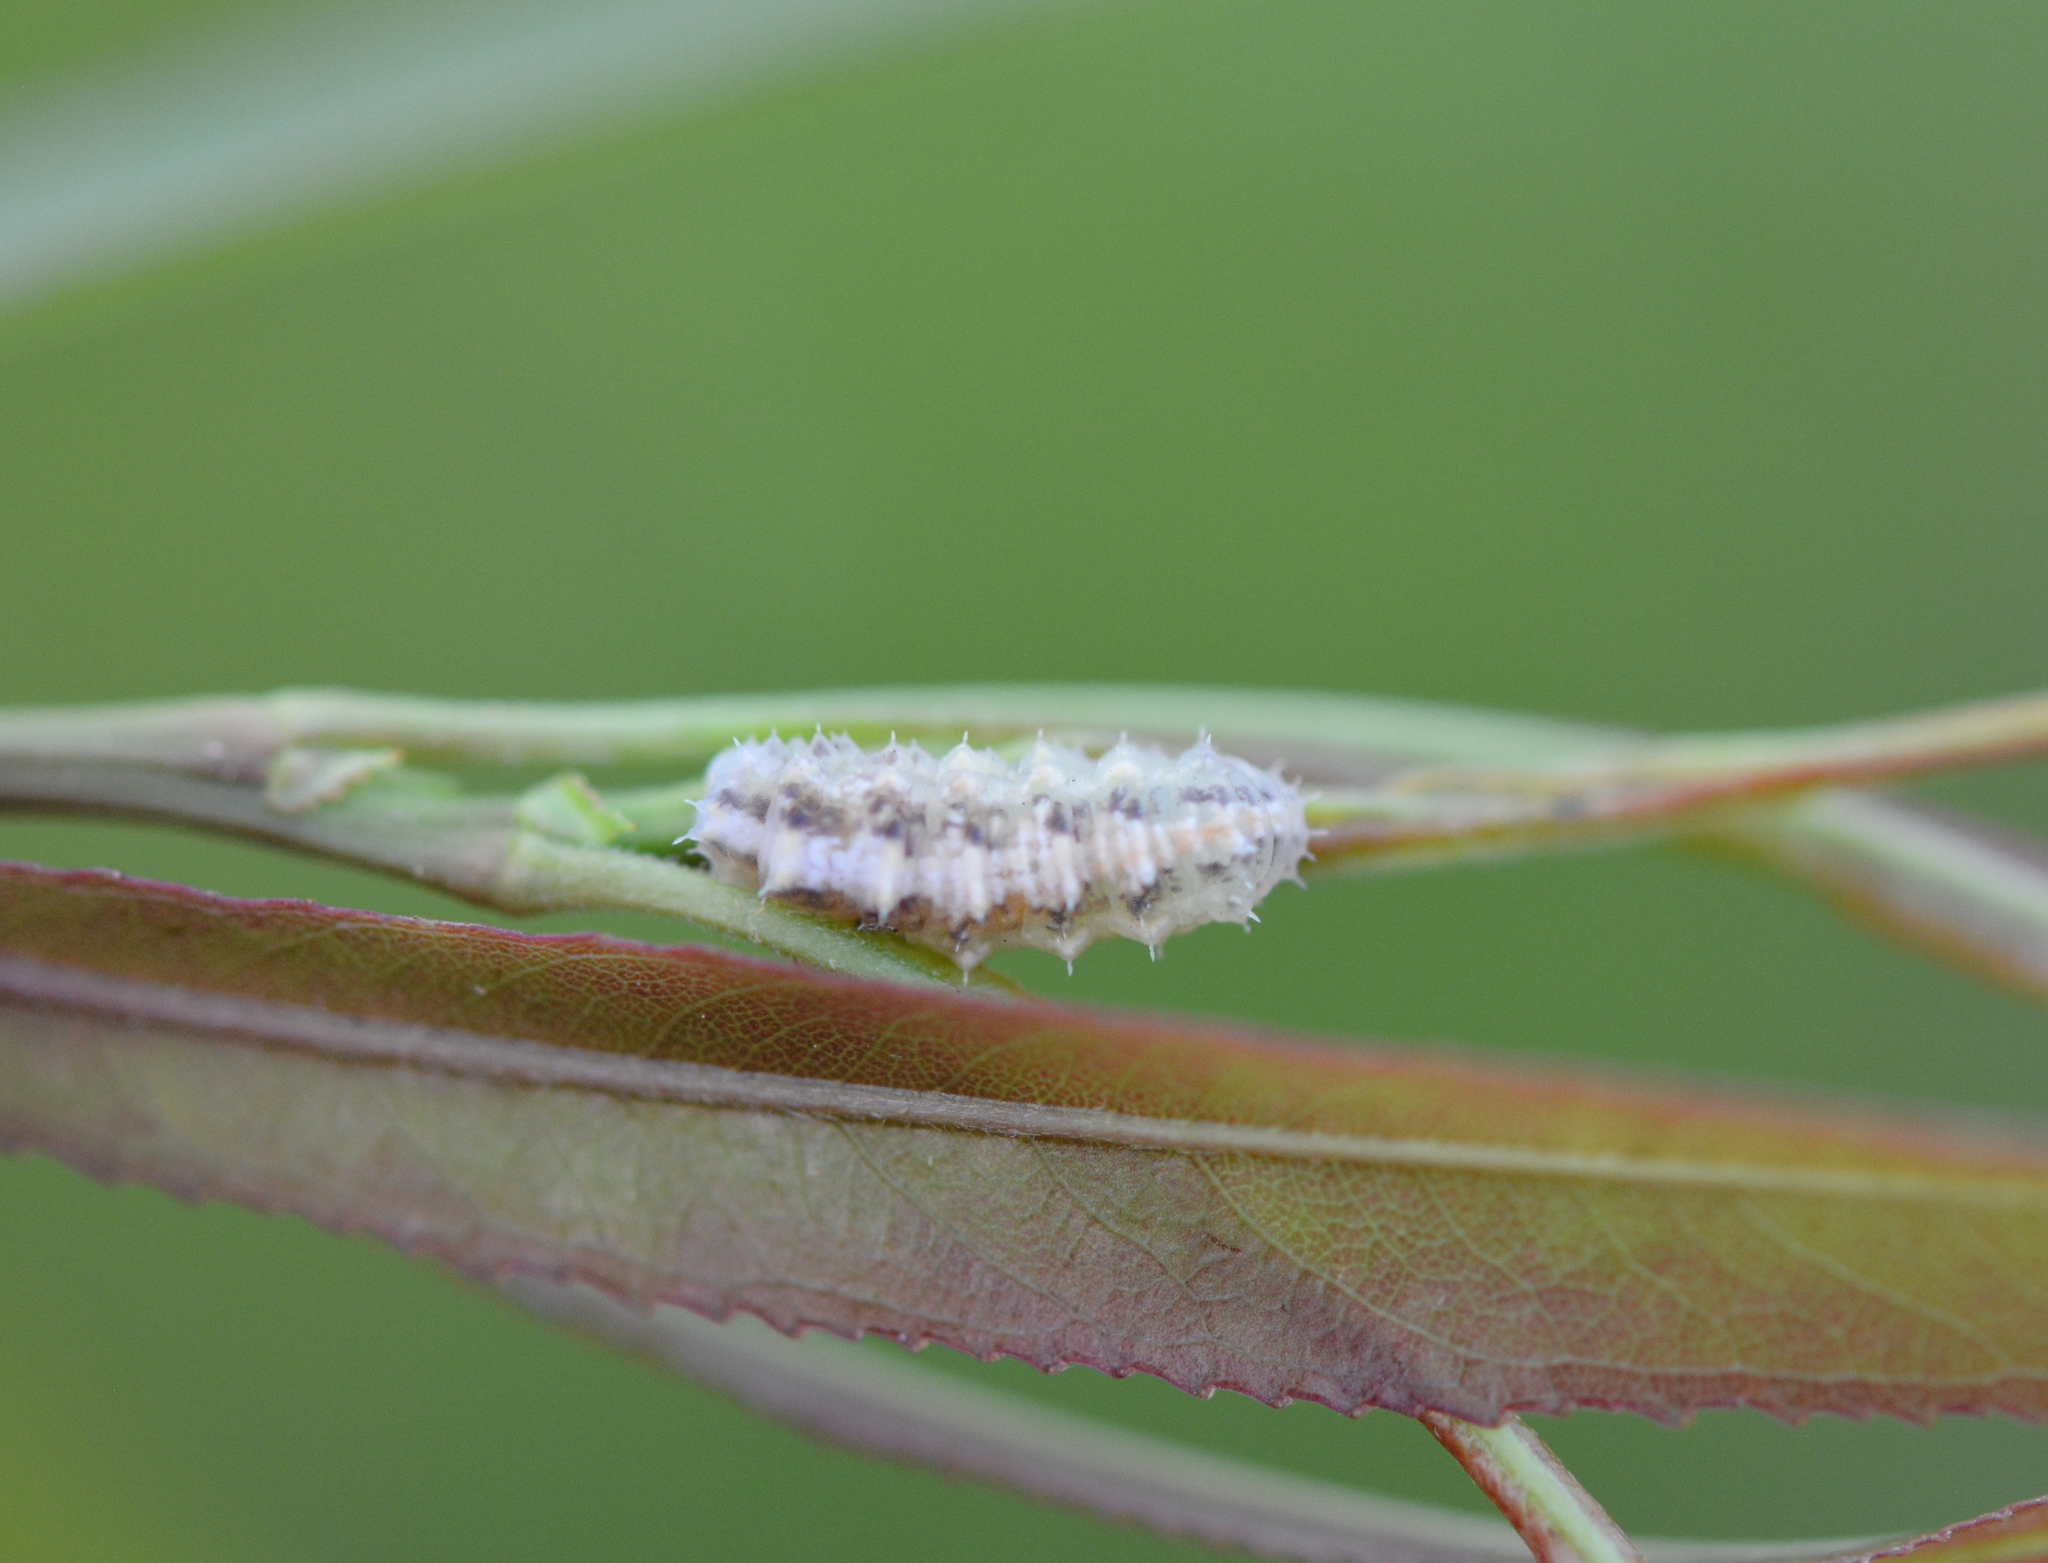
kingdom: Animalia
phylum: Arthropoda
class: Insecta
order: Diptera
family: Syrphidae
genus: Dioprosopa
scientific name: Dioprosopa clavatus
